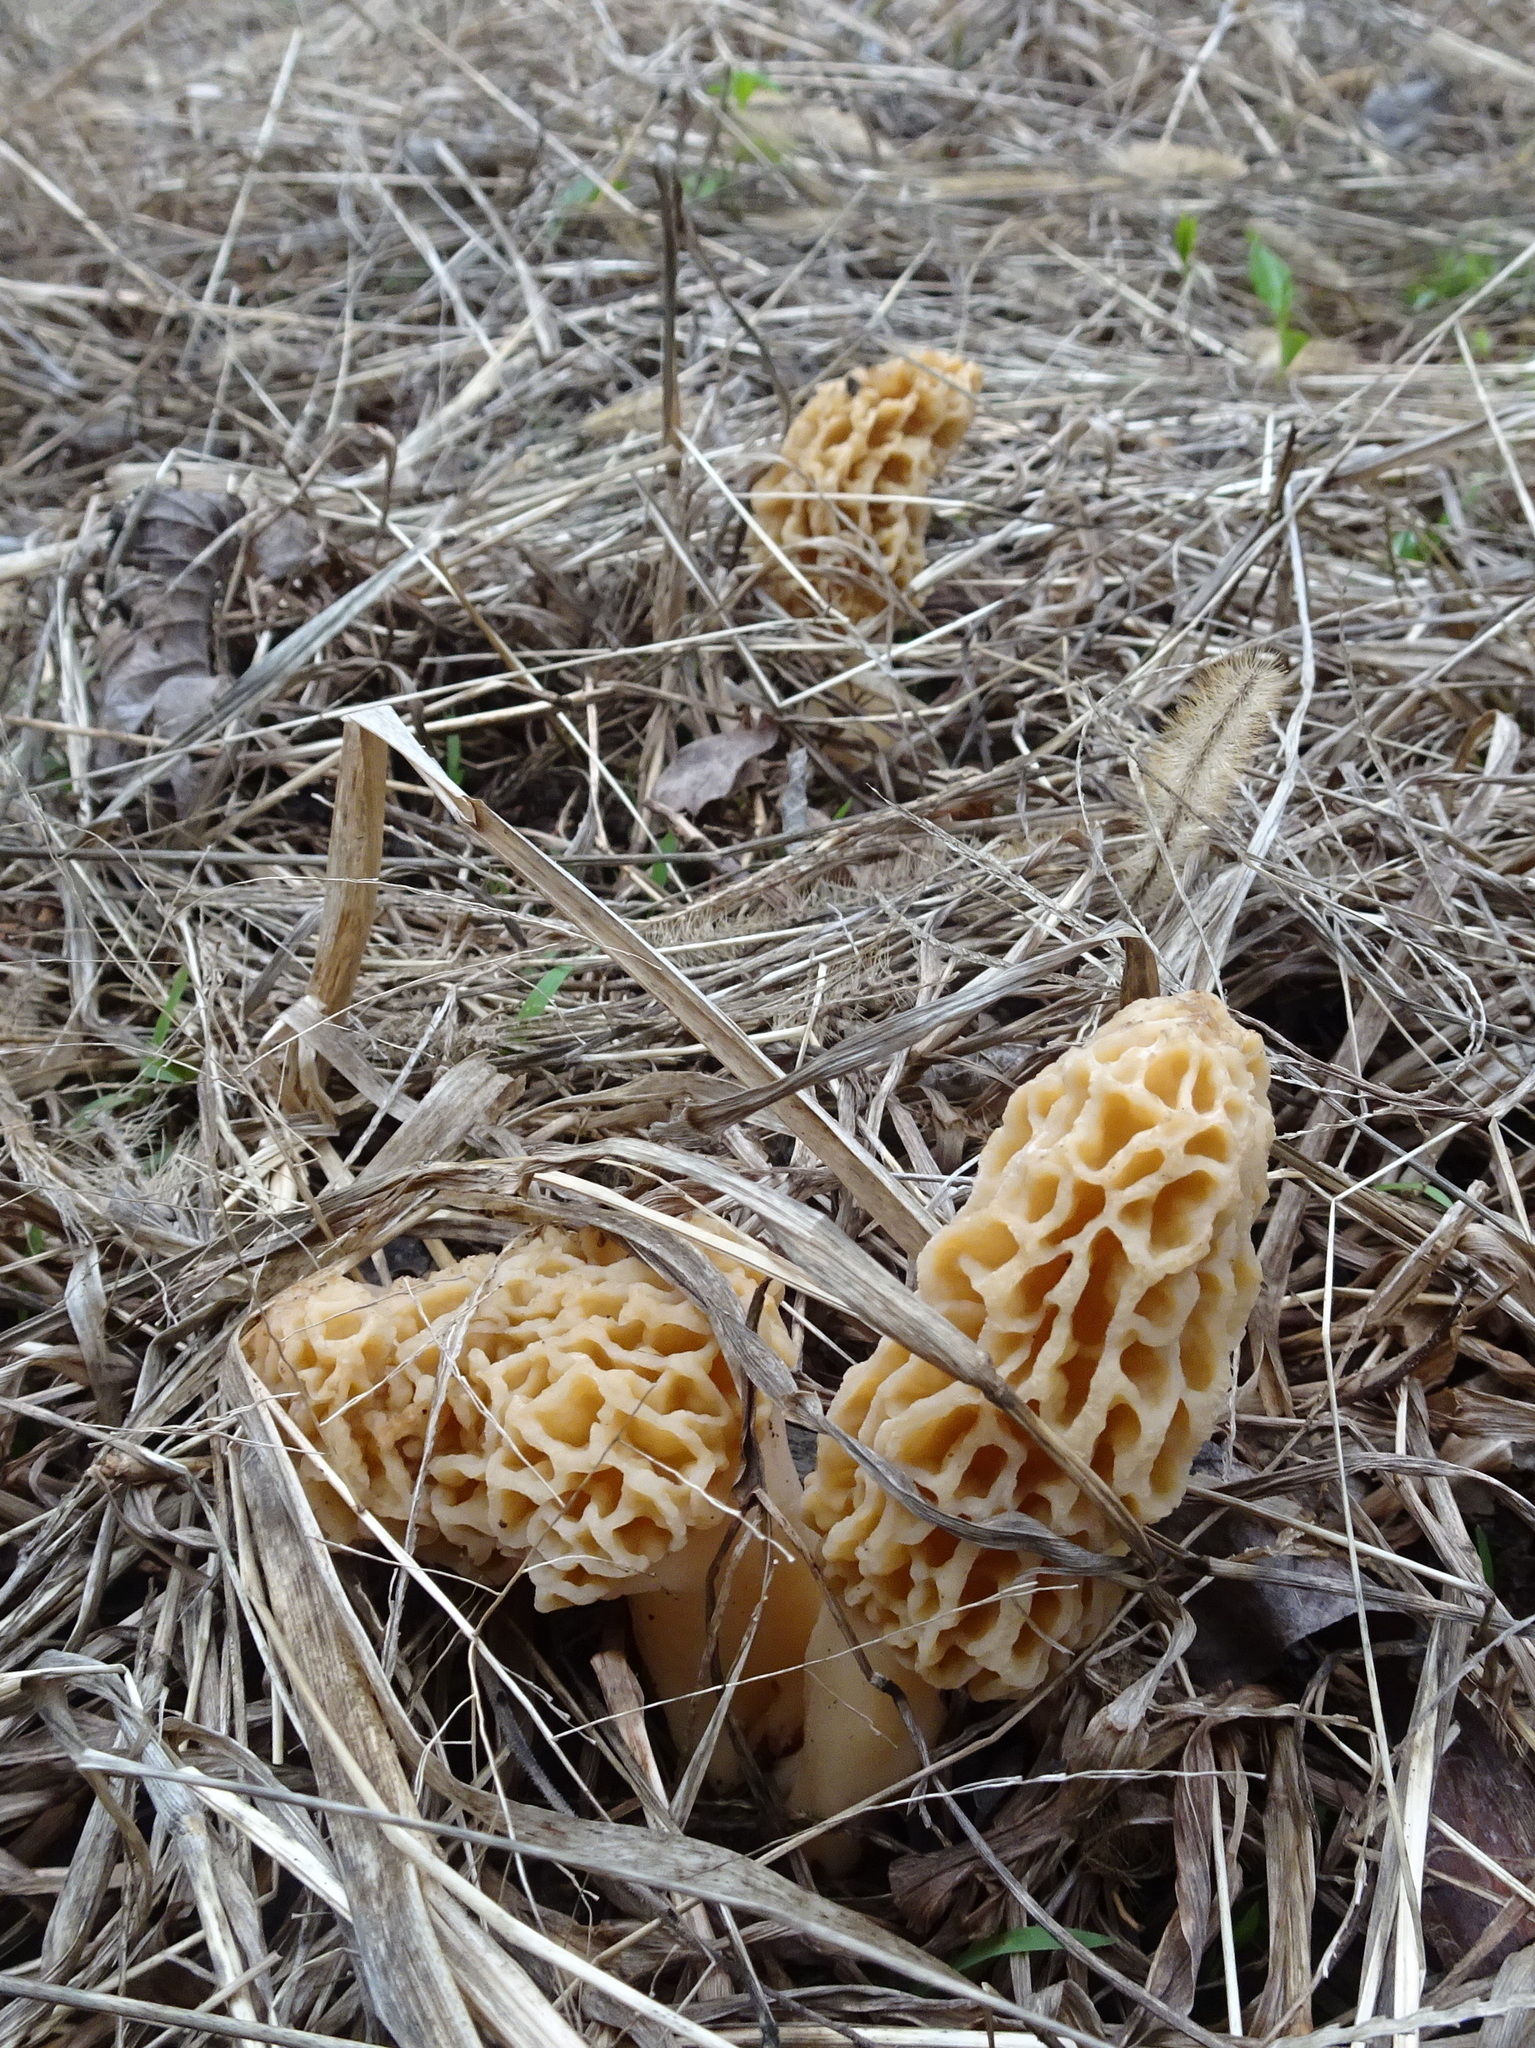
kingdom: Fungi
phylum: Ascomycota
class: Pezizomycetes
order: Pezizales
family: Morchellaceae
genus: Morchella
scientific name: Morchella americana
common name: White morel
